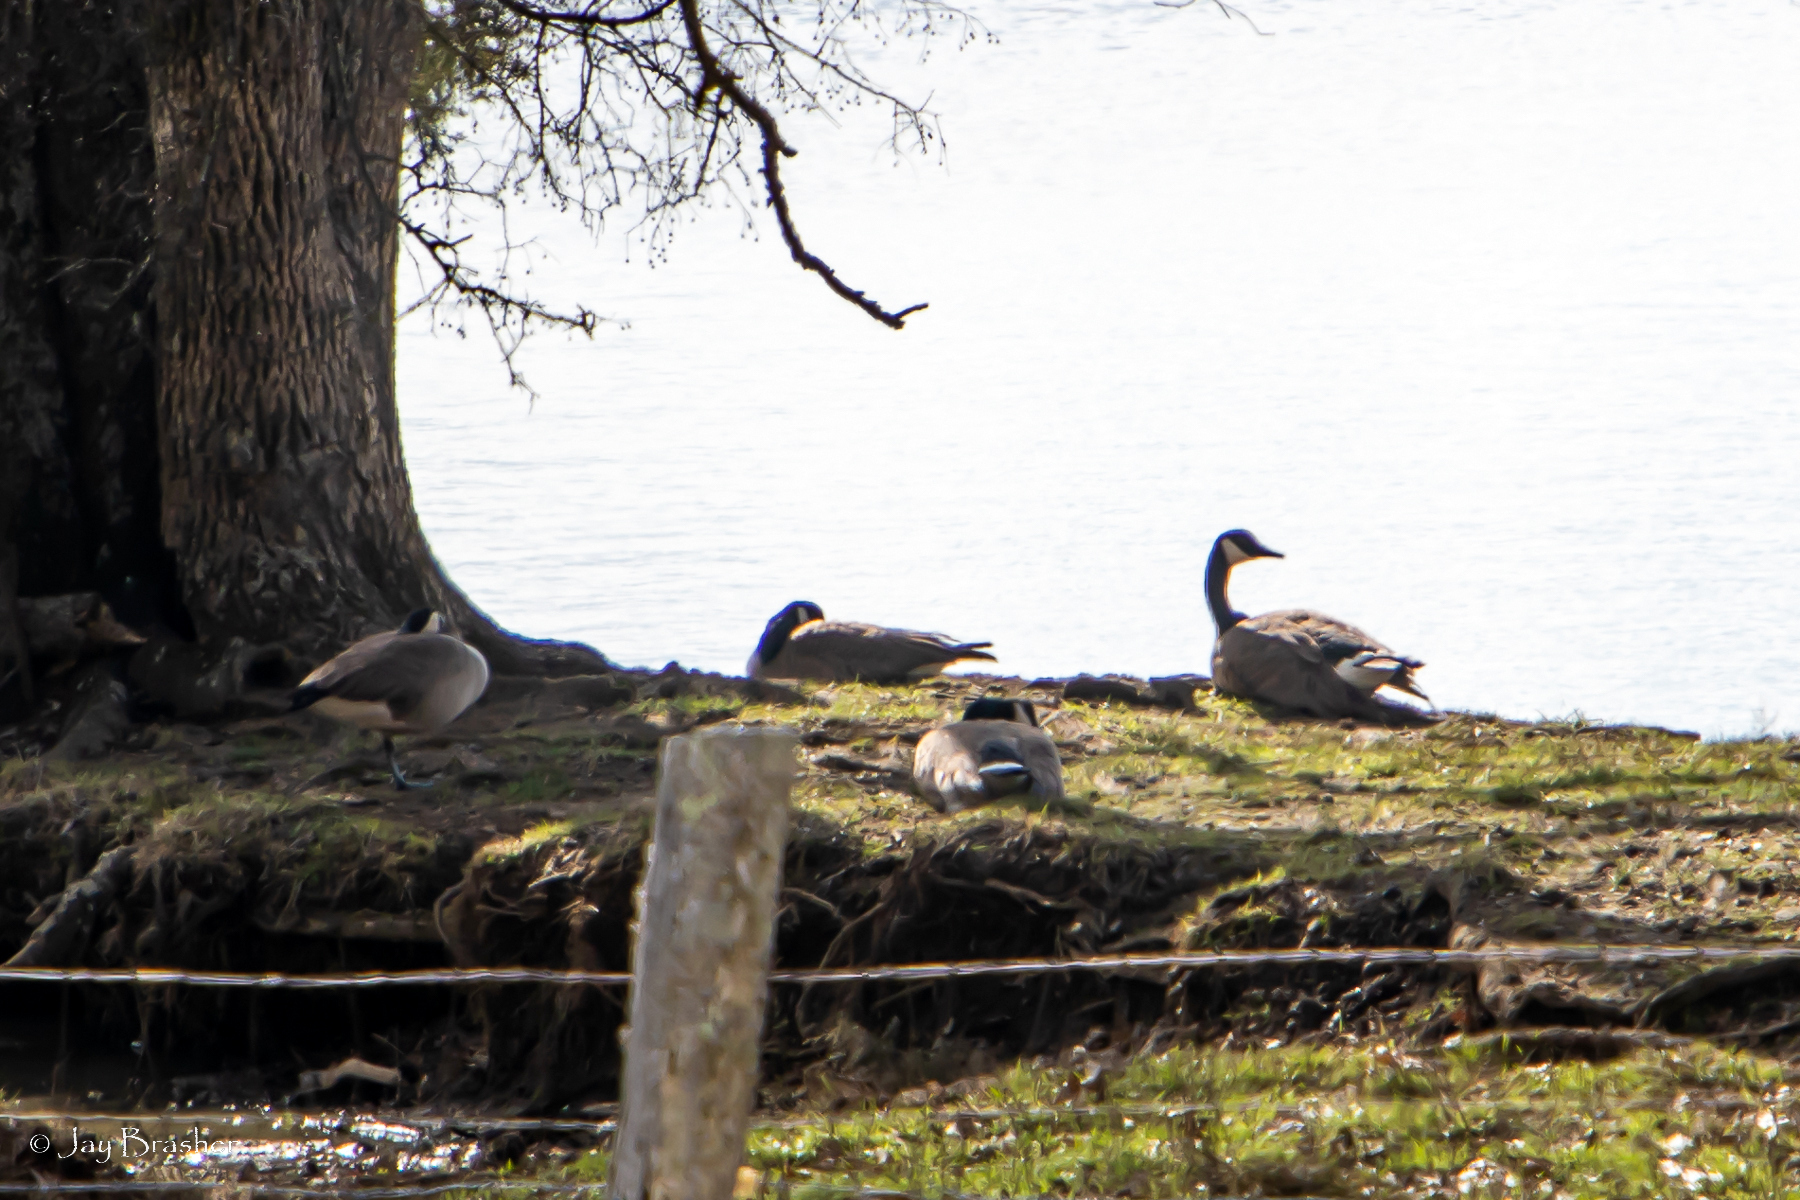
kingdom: Animalia
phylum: Chordata
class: Aves
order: Anseriformes
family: Anatidae
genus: Branta
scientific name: Branta canadensis
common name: Canada goose
